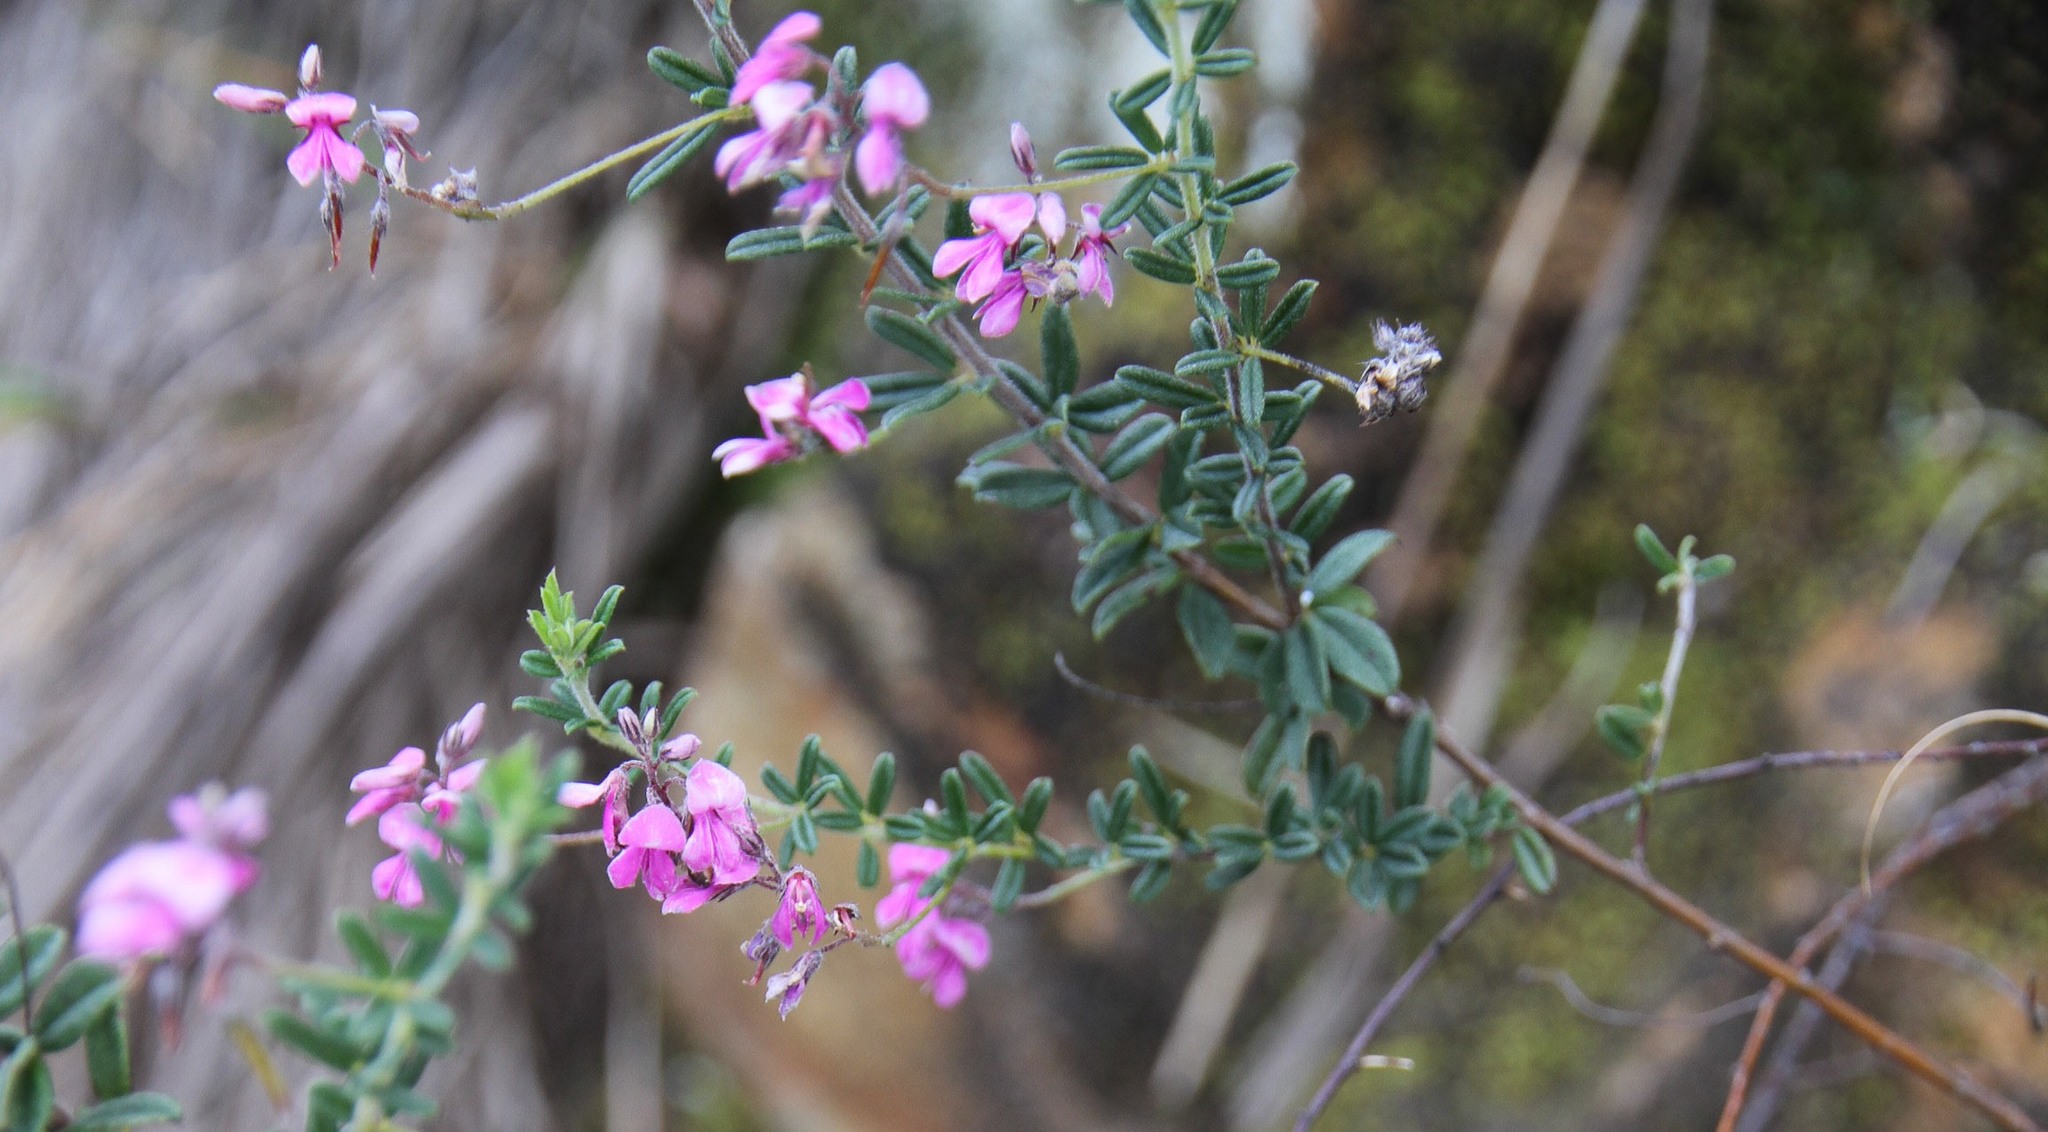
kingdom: Plantae
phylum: Tracheophyta
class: Magnoliopsida
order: Fabales
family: Fabaceae
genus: Indigofera
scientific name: Indigofera filiformis
